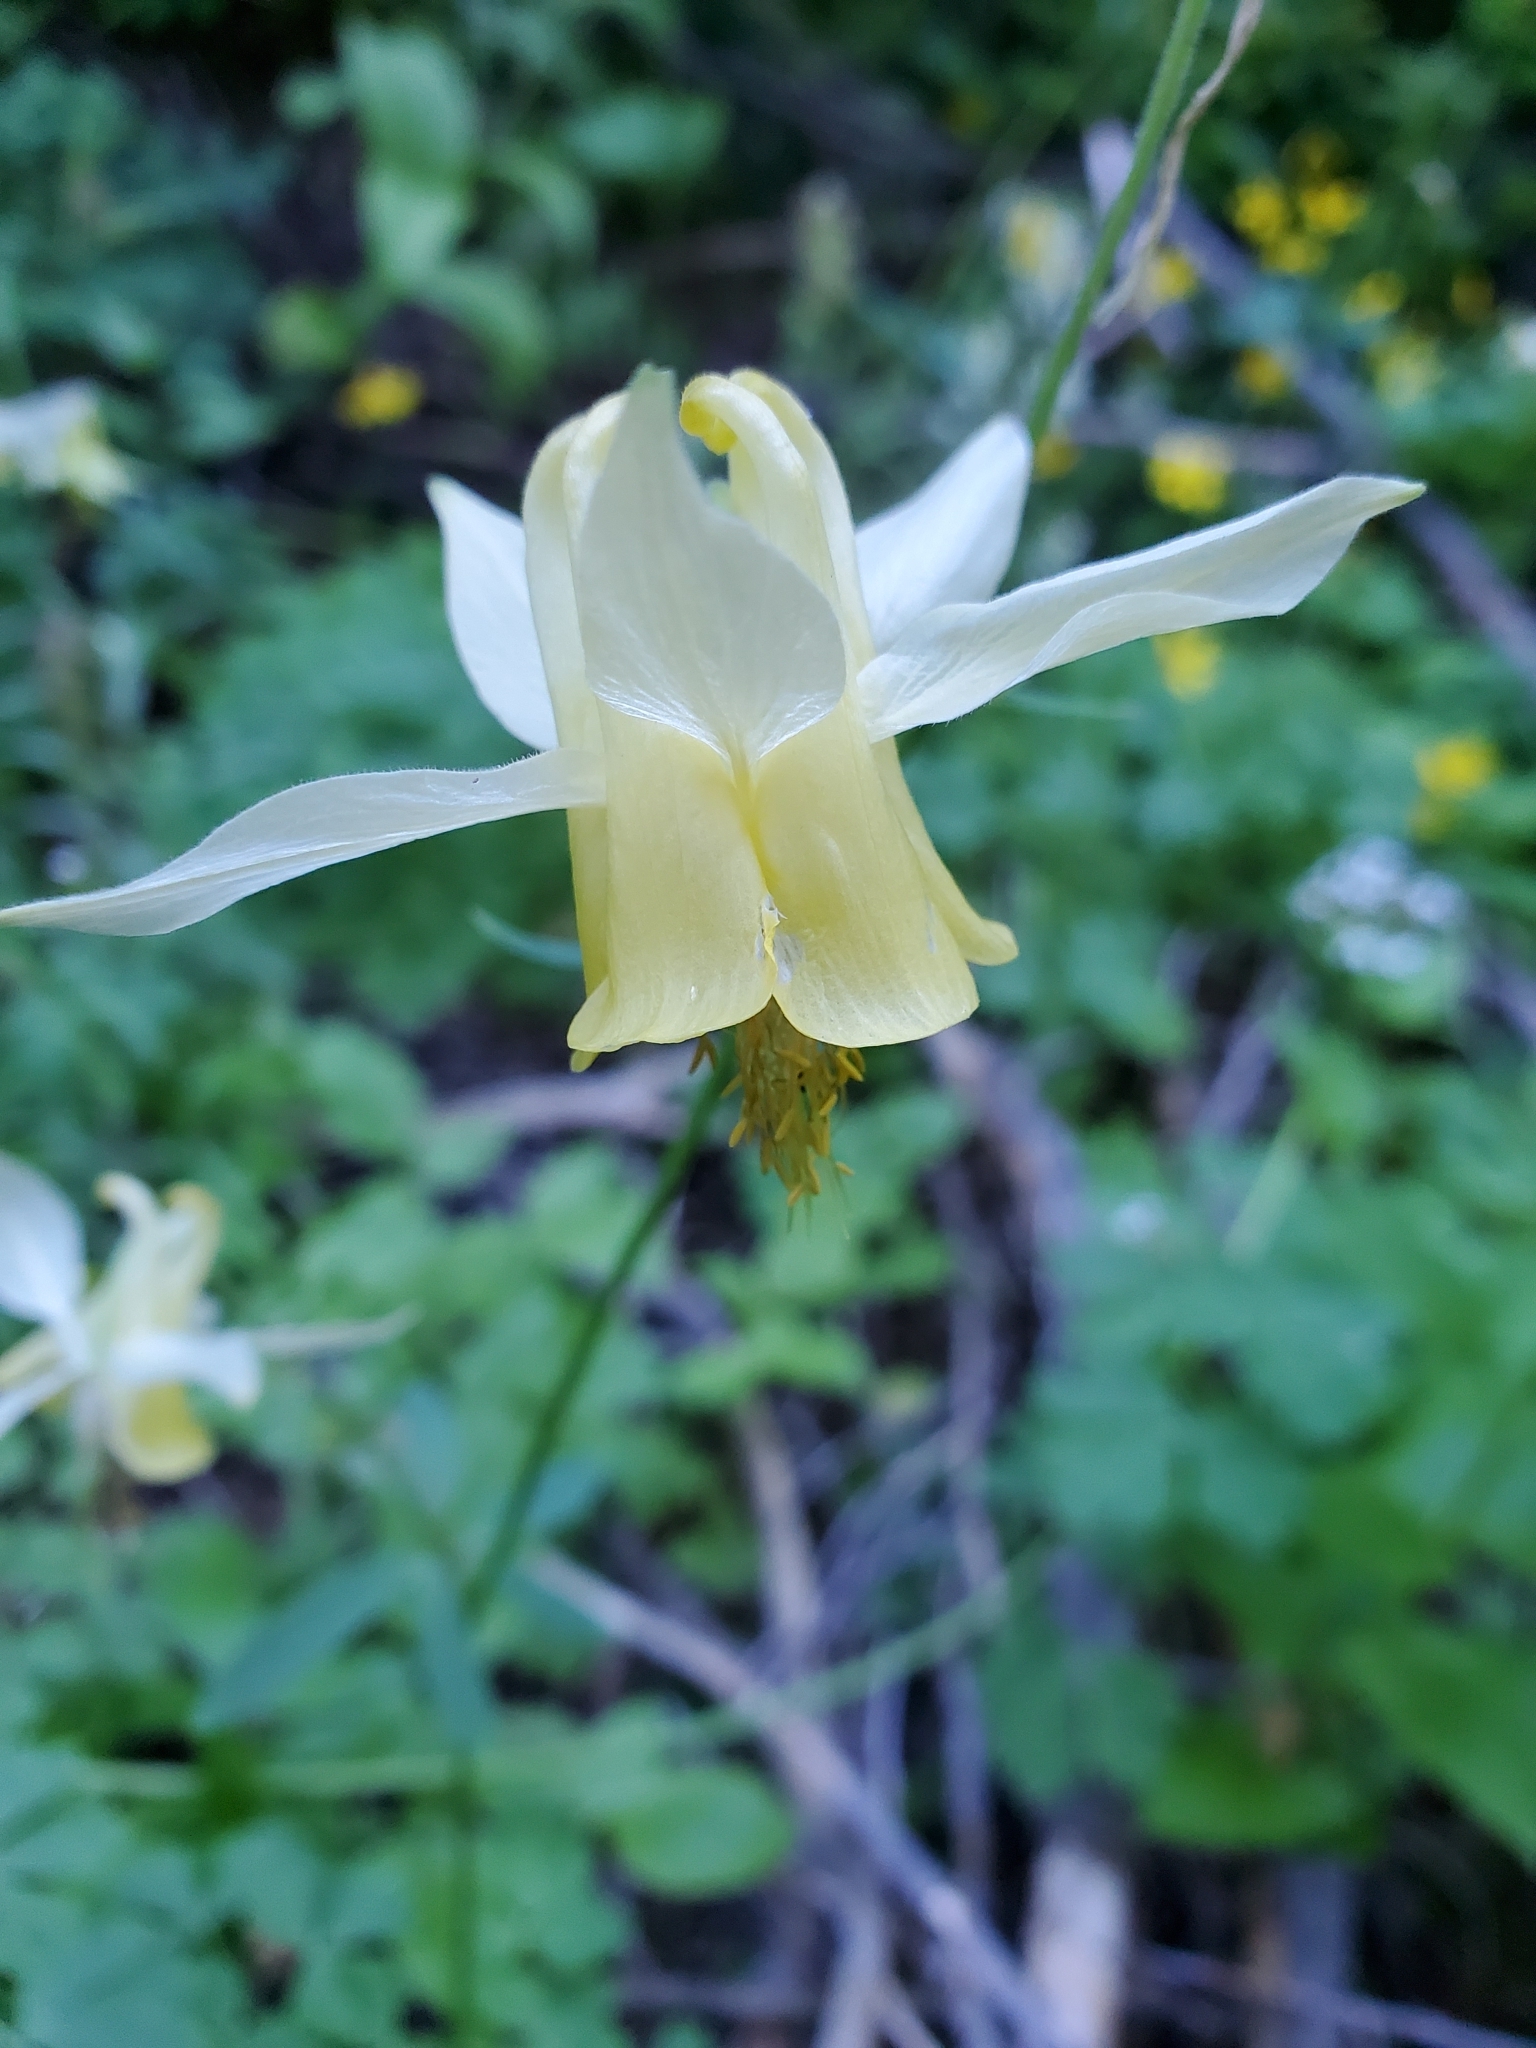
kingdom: Plantae
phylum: Tracheophyta
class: Magnoliopsida
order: Ranunculales
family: Ranunculaceae
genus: Aquilegia
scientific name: Aquilegia flavescens
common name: Yellow columbine
